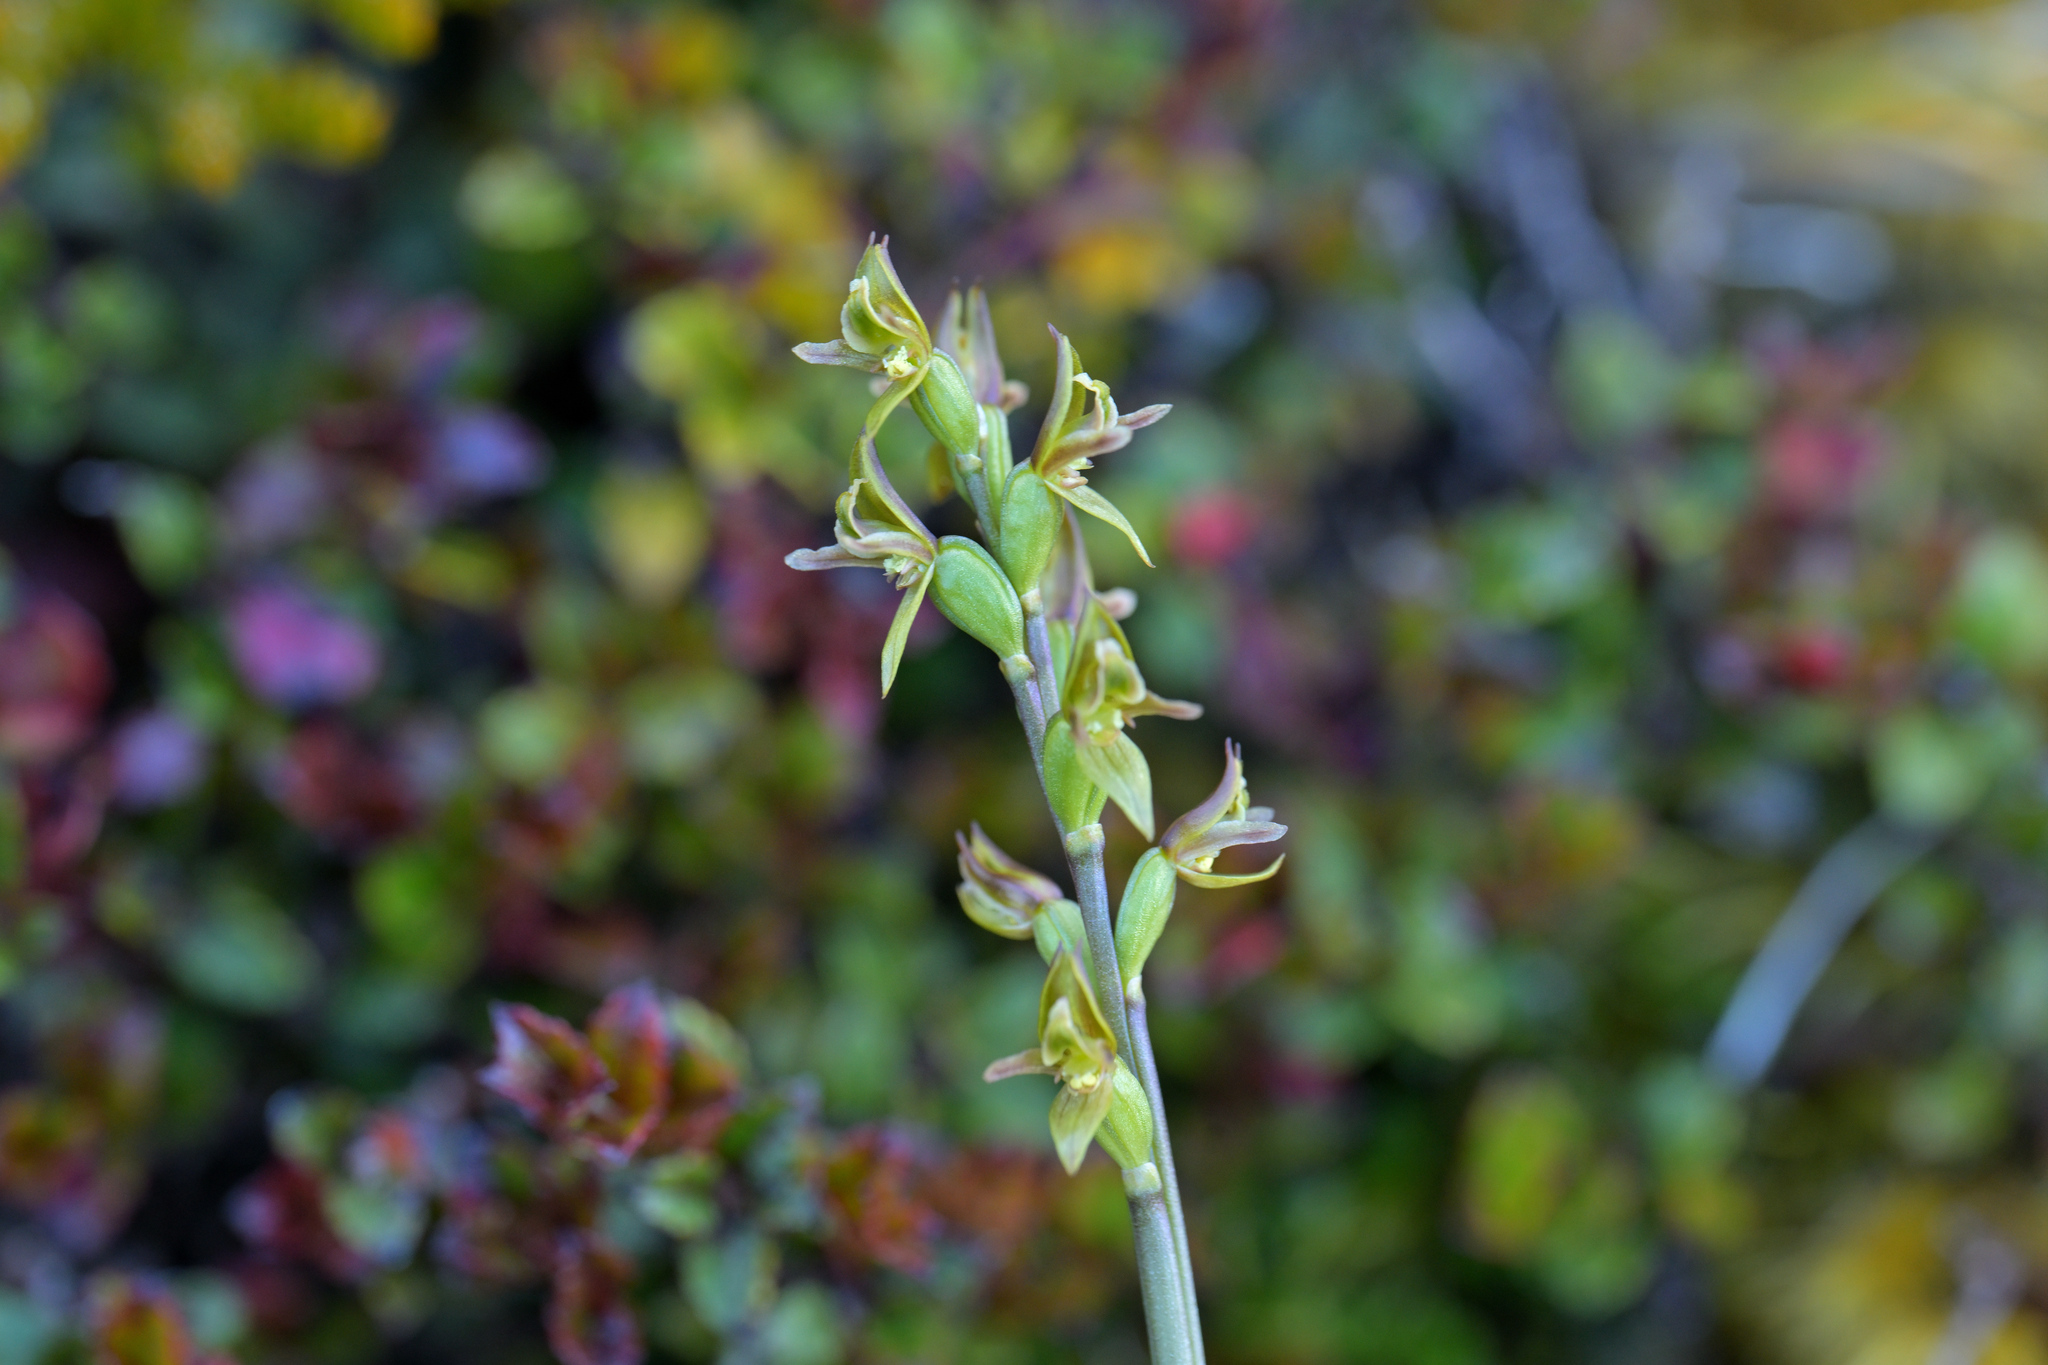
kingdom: Plantae
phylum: Tracheophyta
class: Liliopsida
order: Asparagales
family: Orchidaceae
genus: Prasophyllum
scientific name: Prasophyllum colensoi
